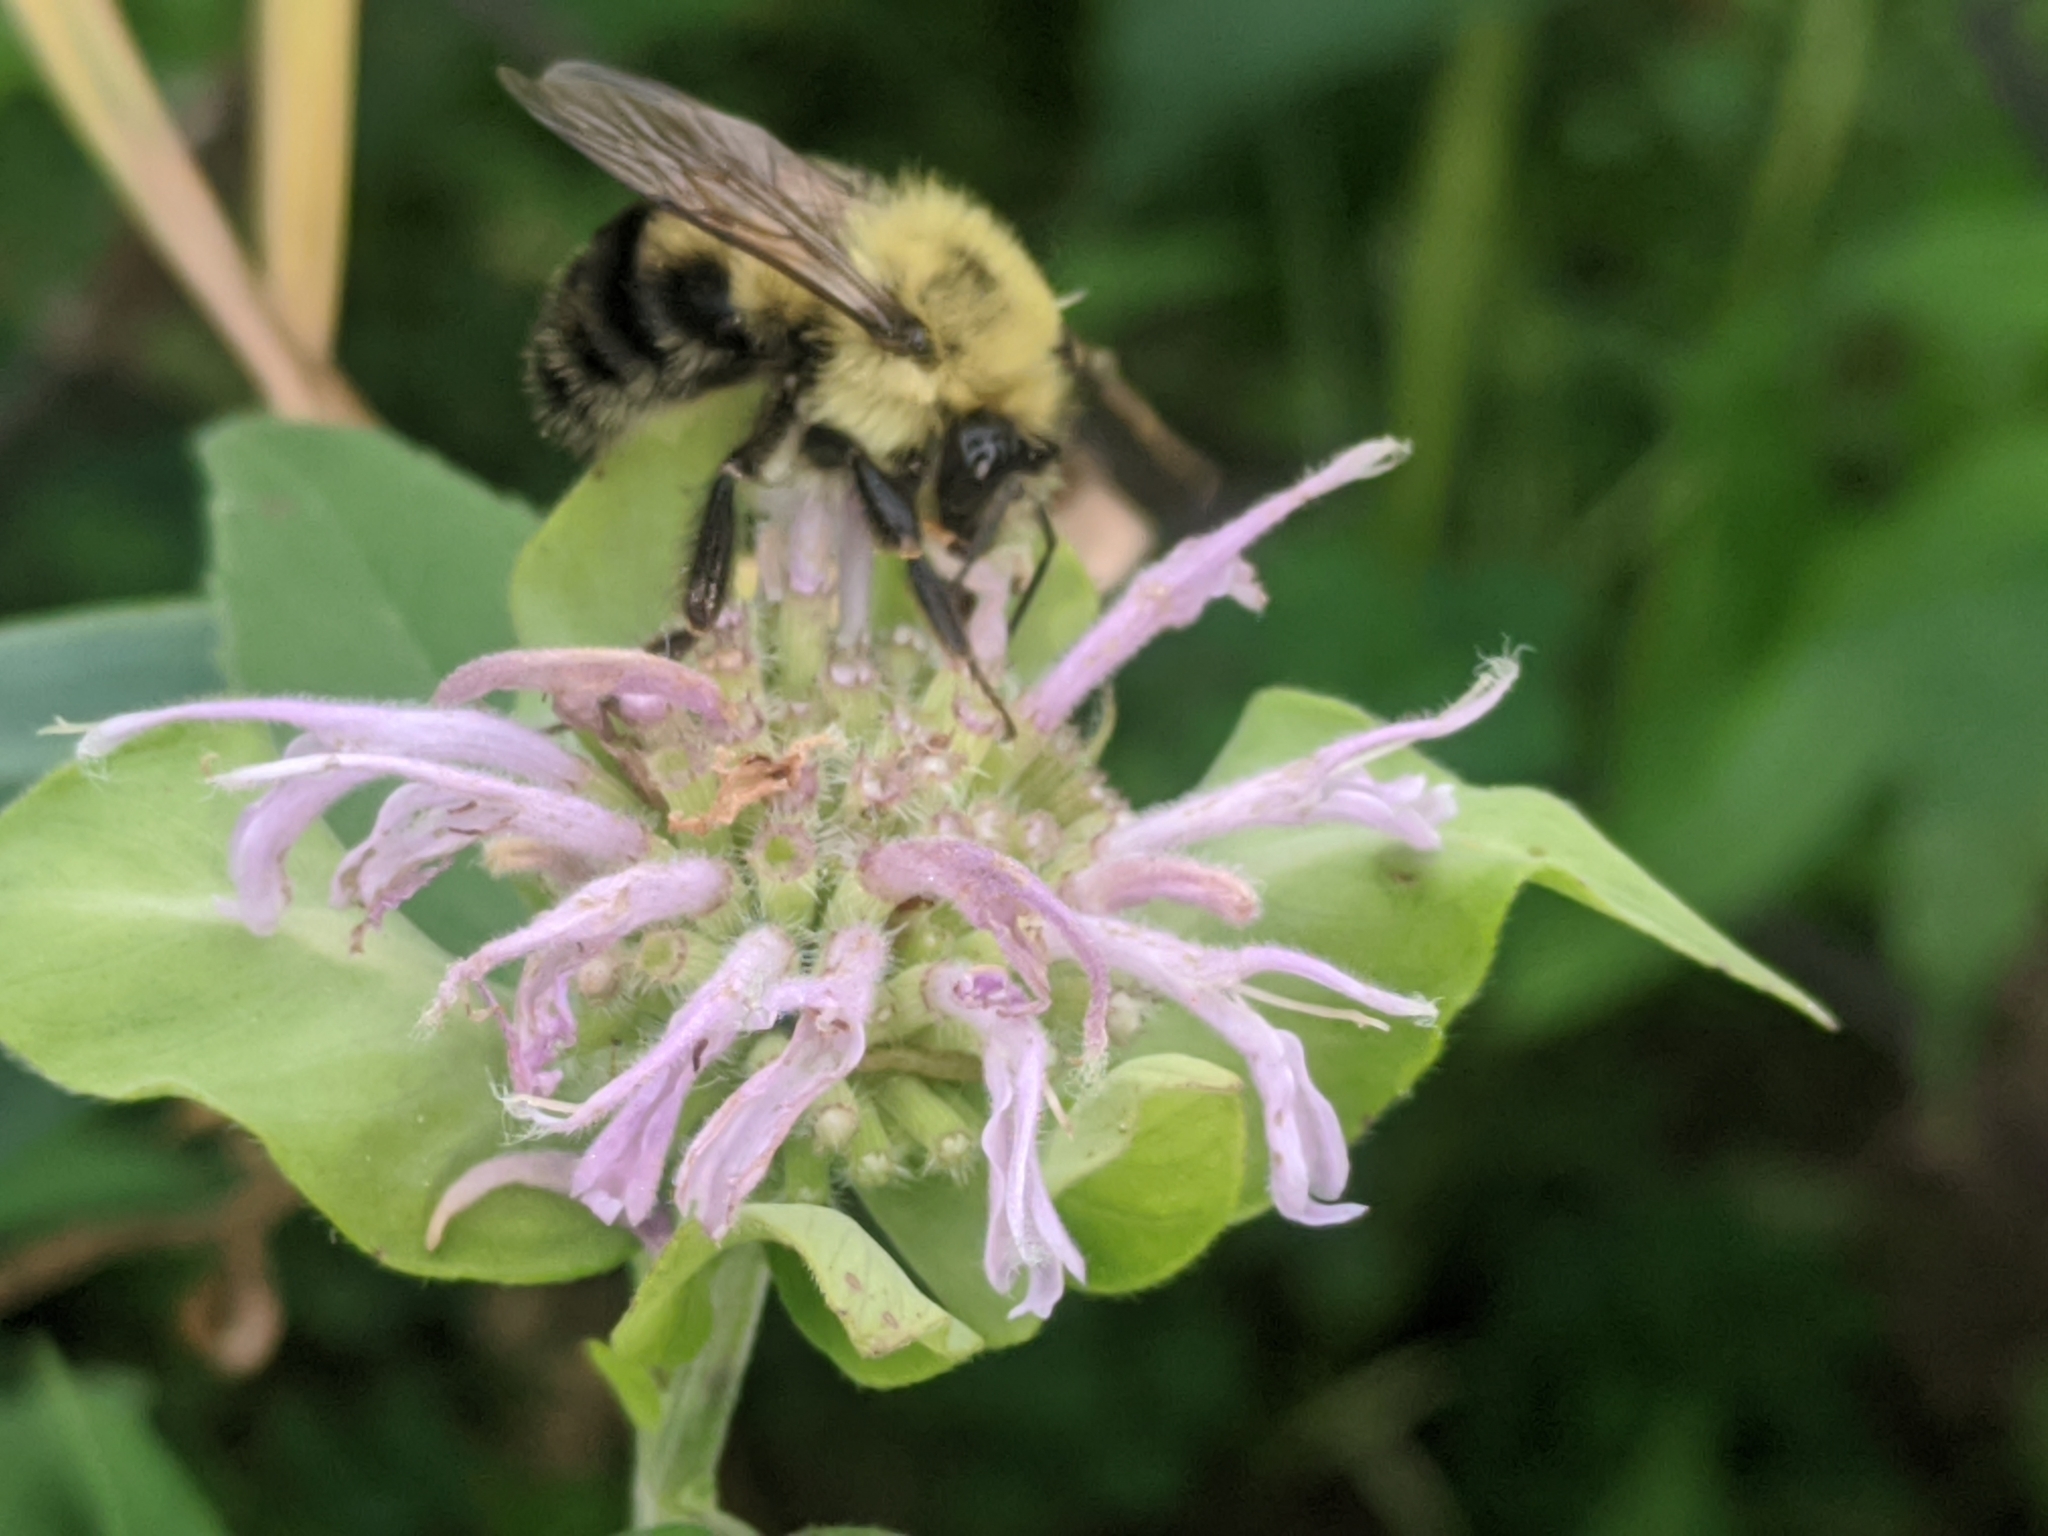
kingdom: Animalia
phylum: Arthropoda
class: Insecta
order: Hymenoptera
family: Apidae
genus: Bombus
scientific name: Bombus bimaculatus
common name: Two-spotted bumble bee
